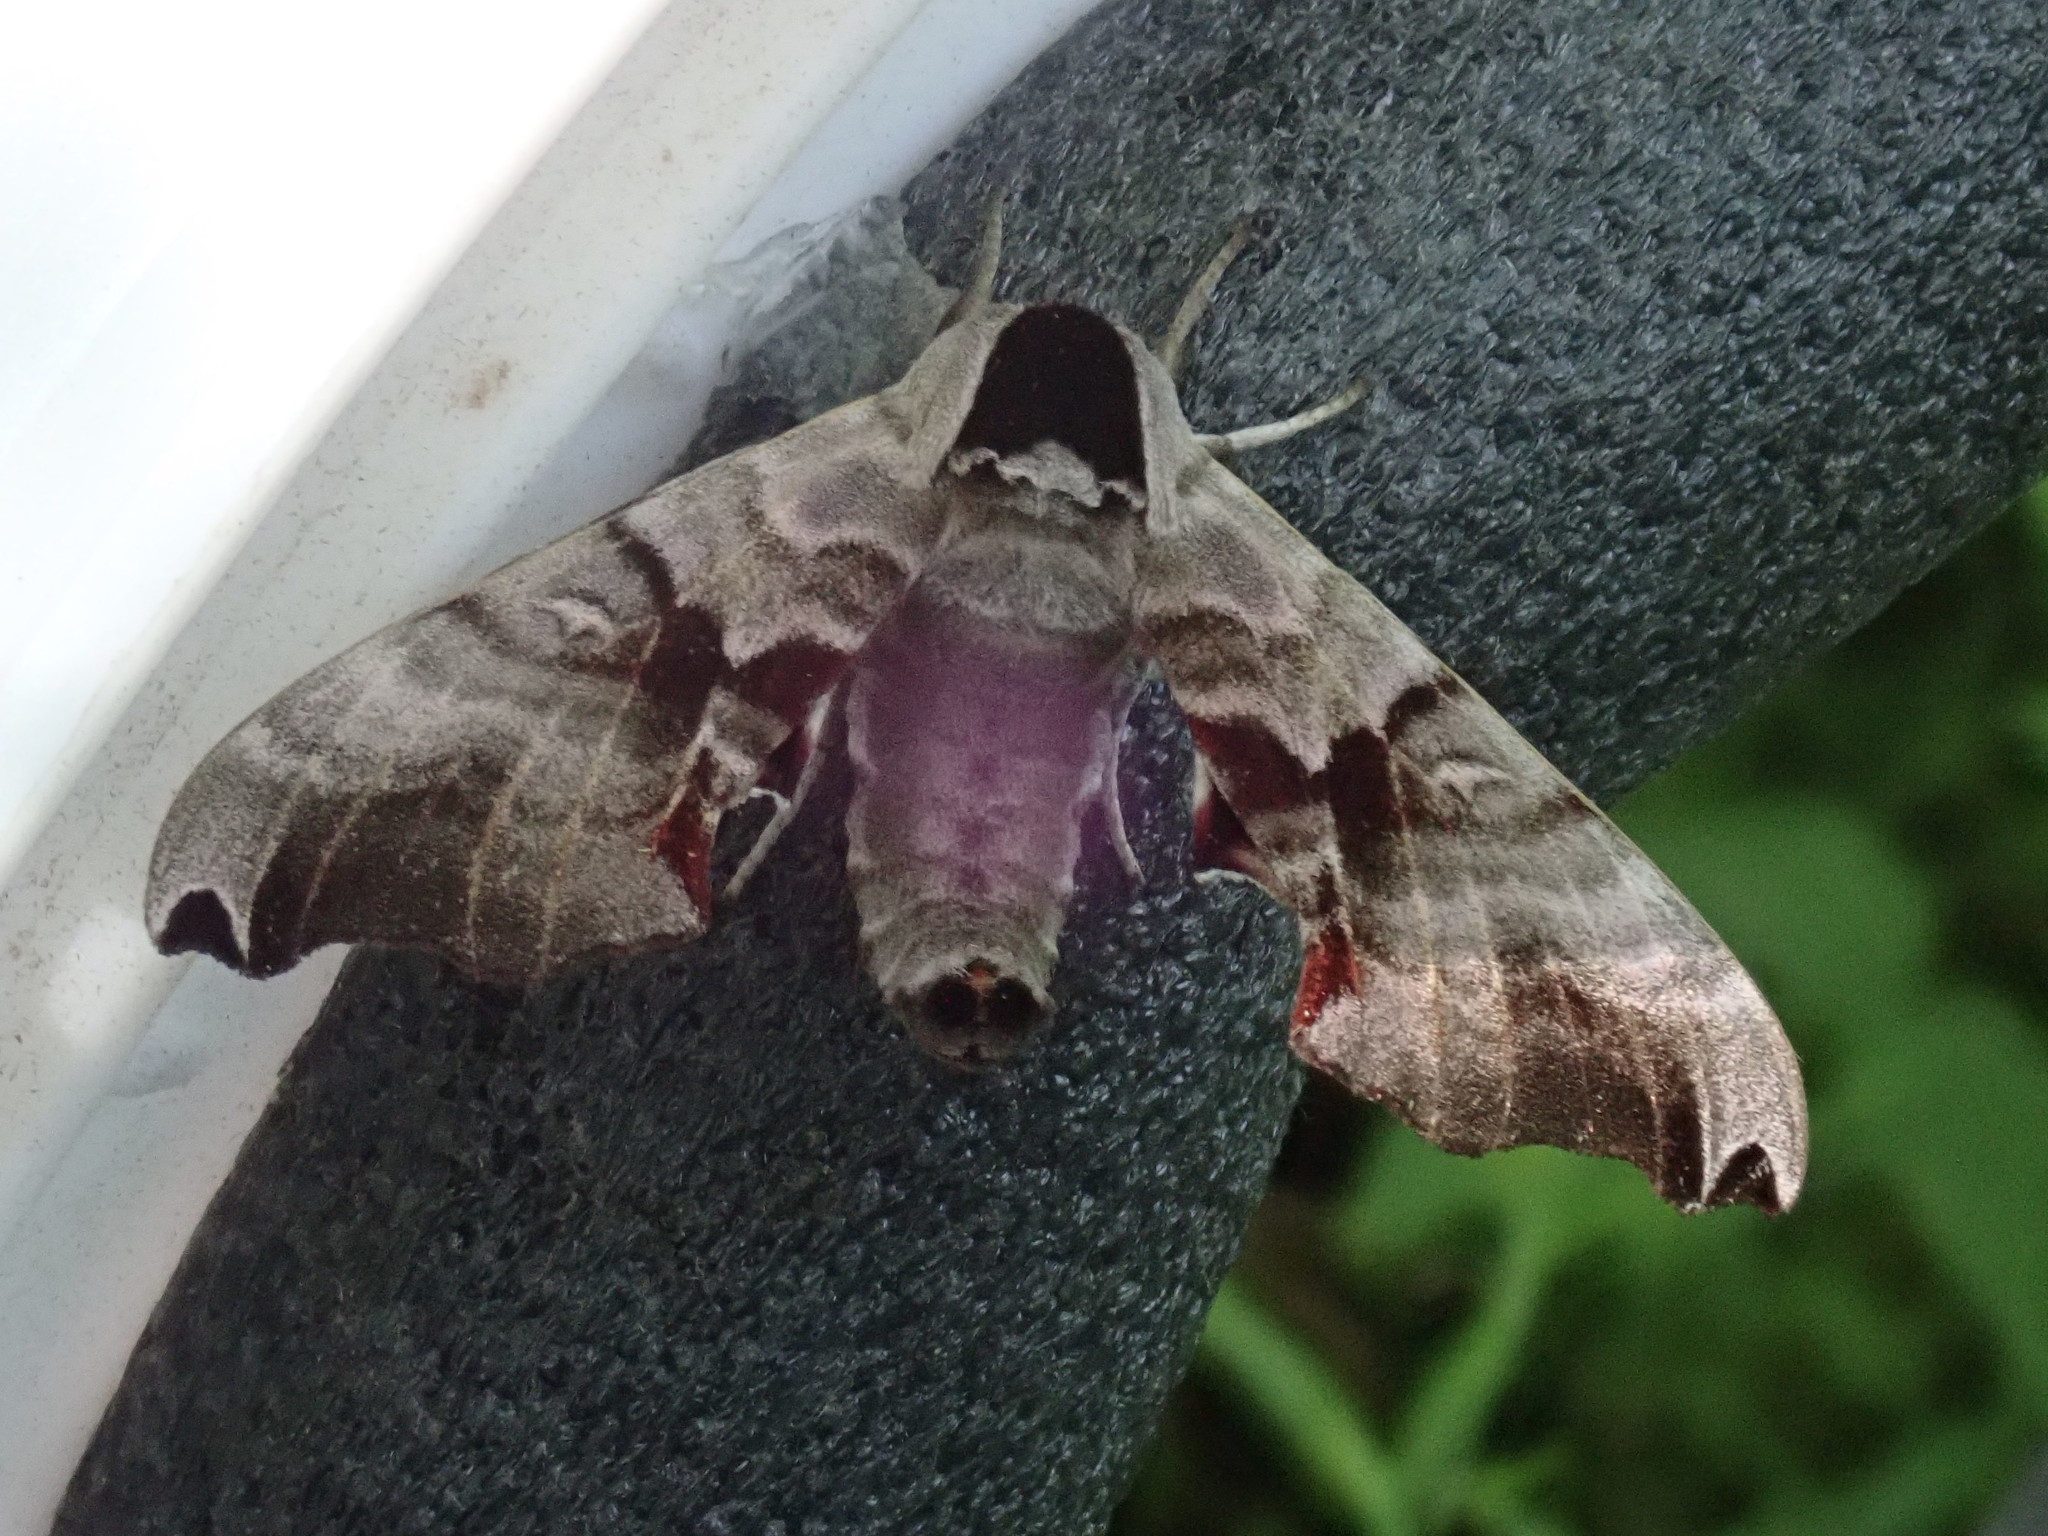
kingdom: Animalia
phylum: Arthropoda
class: Insecta
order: Lepidoptera
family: Sphingidae
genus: Smerinthus
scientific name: Smerinthus jamaicensis
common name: Twin spotted sphinx
